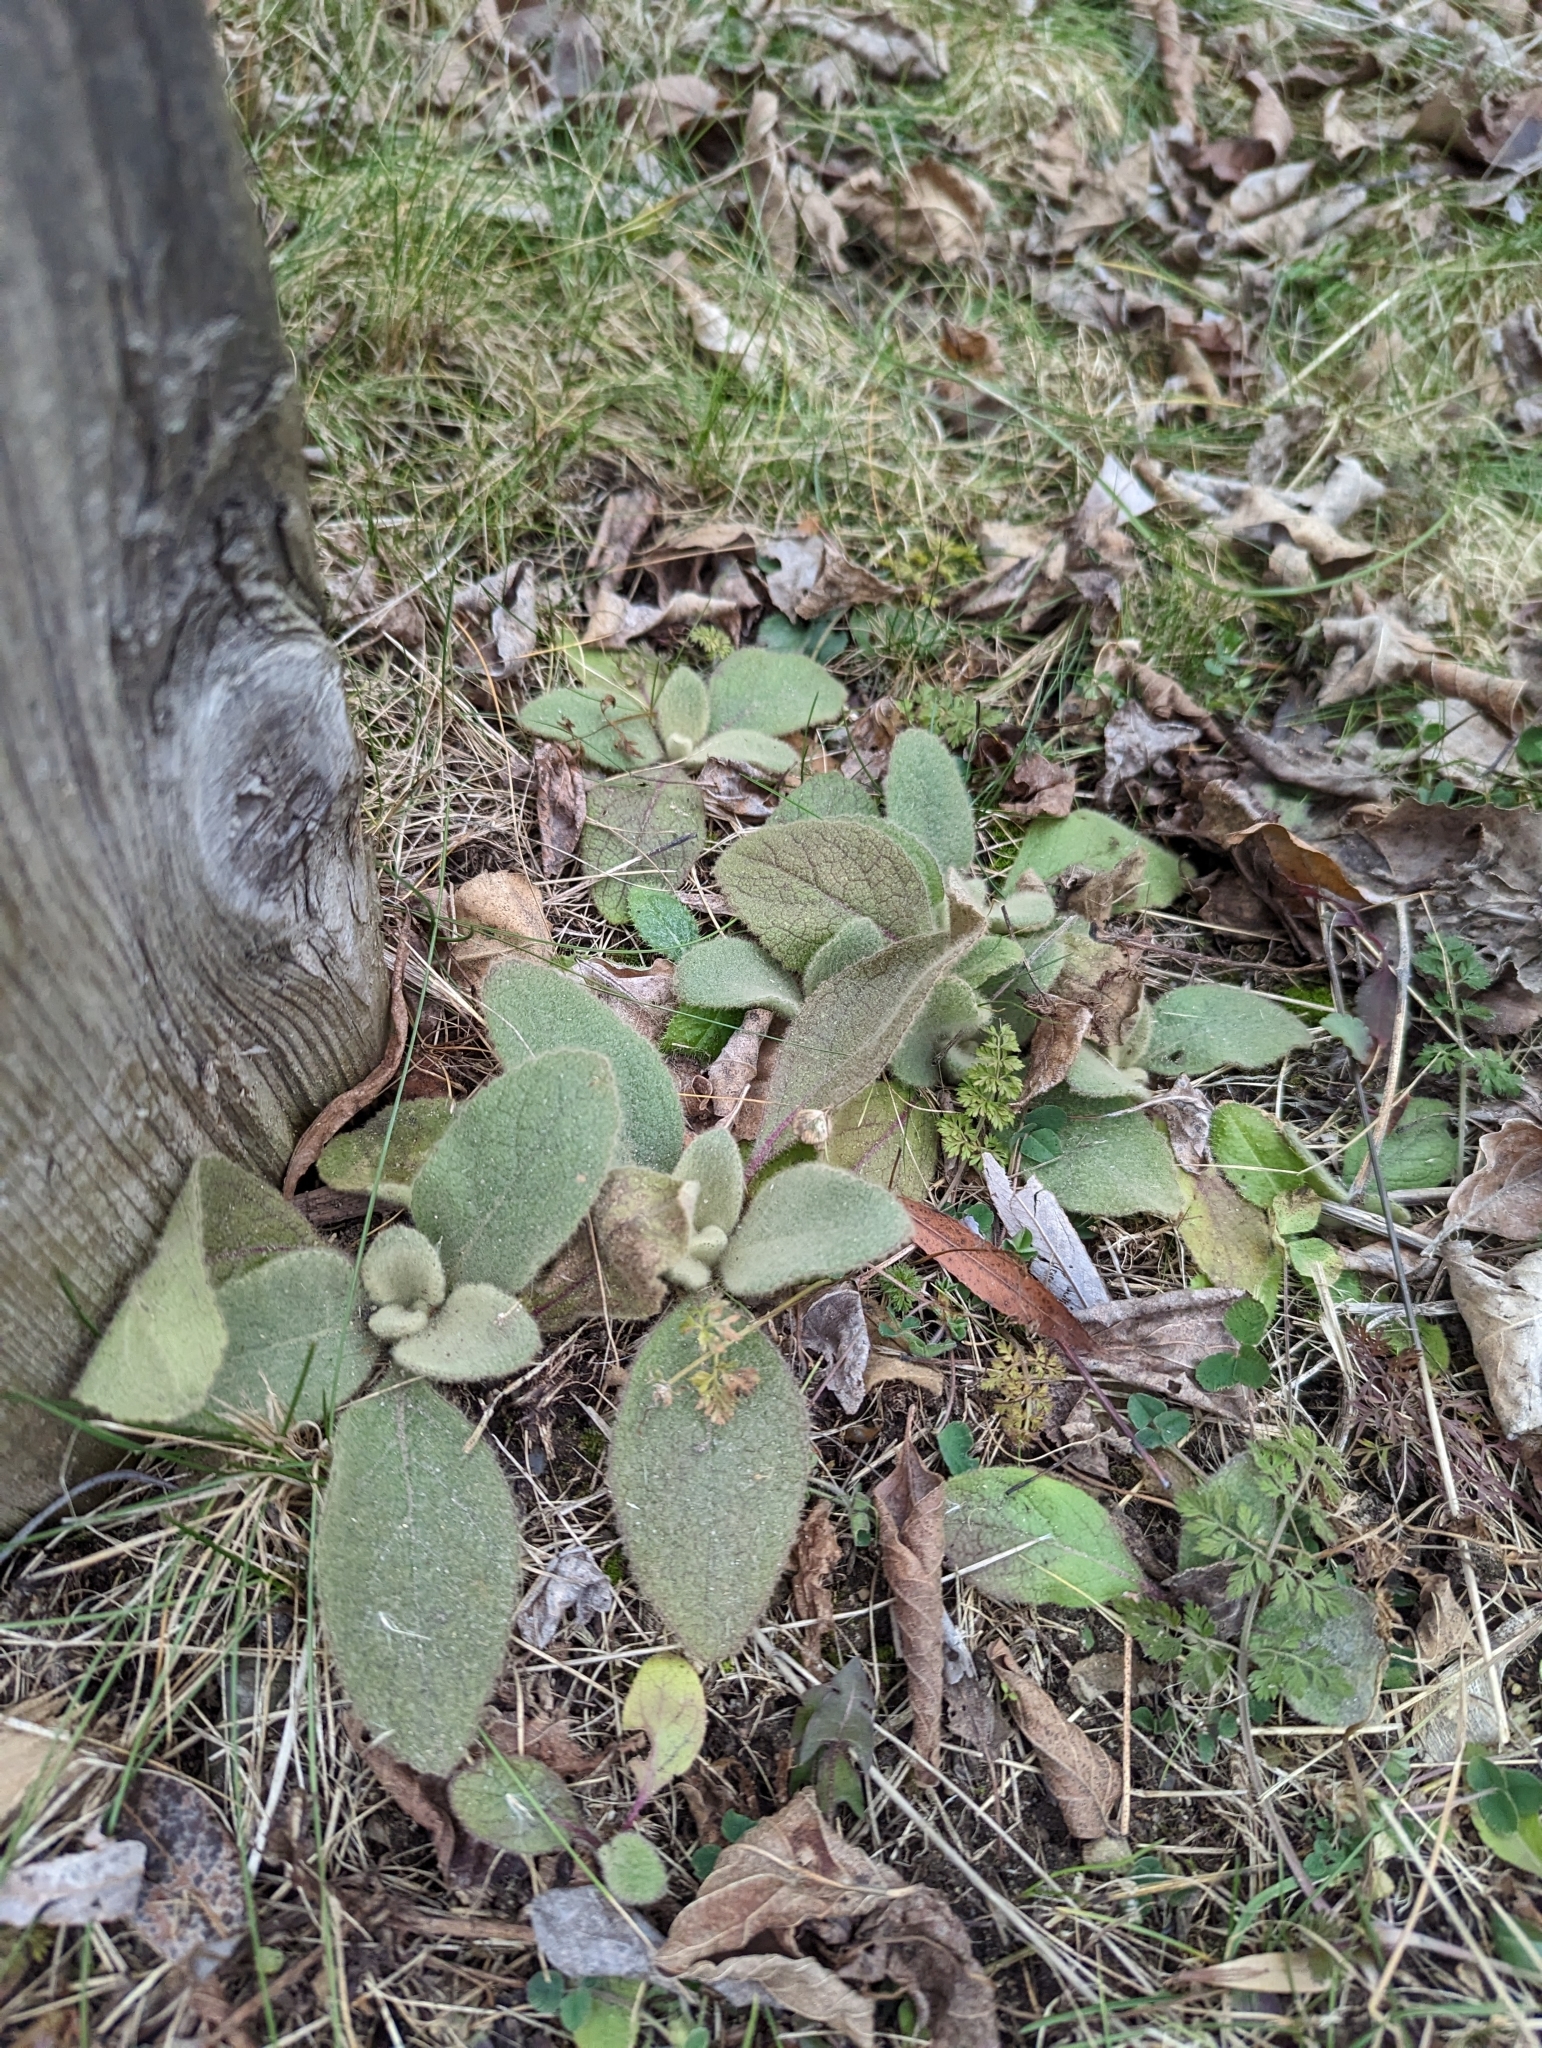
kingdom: Plantae
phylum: Tracheophyta
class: Magnoliopsida
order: Lamiales
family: Scrophulariaceae
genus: Verbascum
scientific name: Verbascum thapsus
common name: Common mullein
